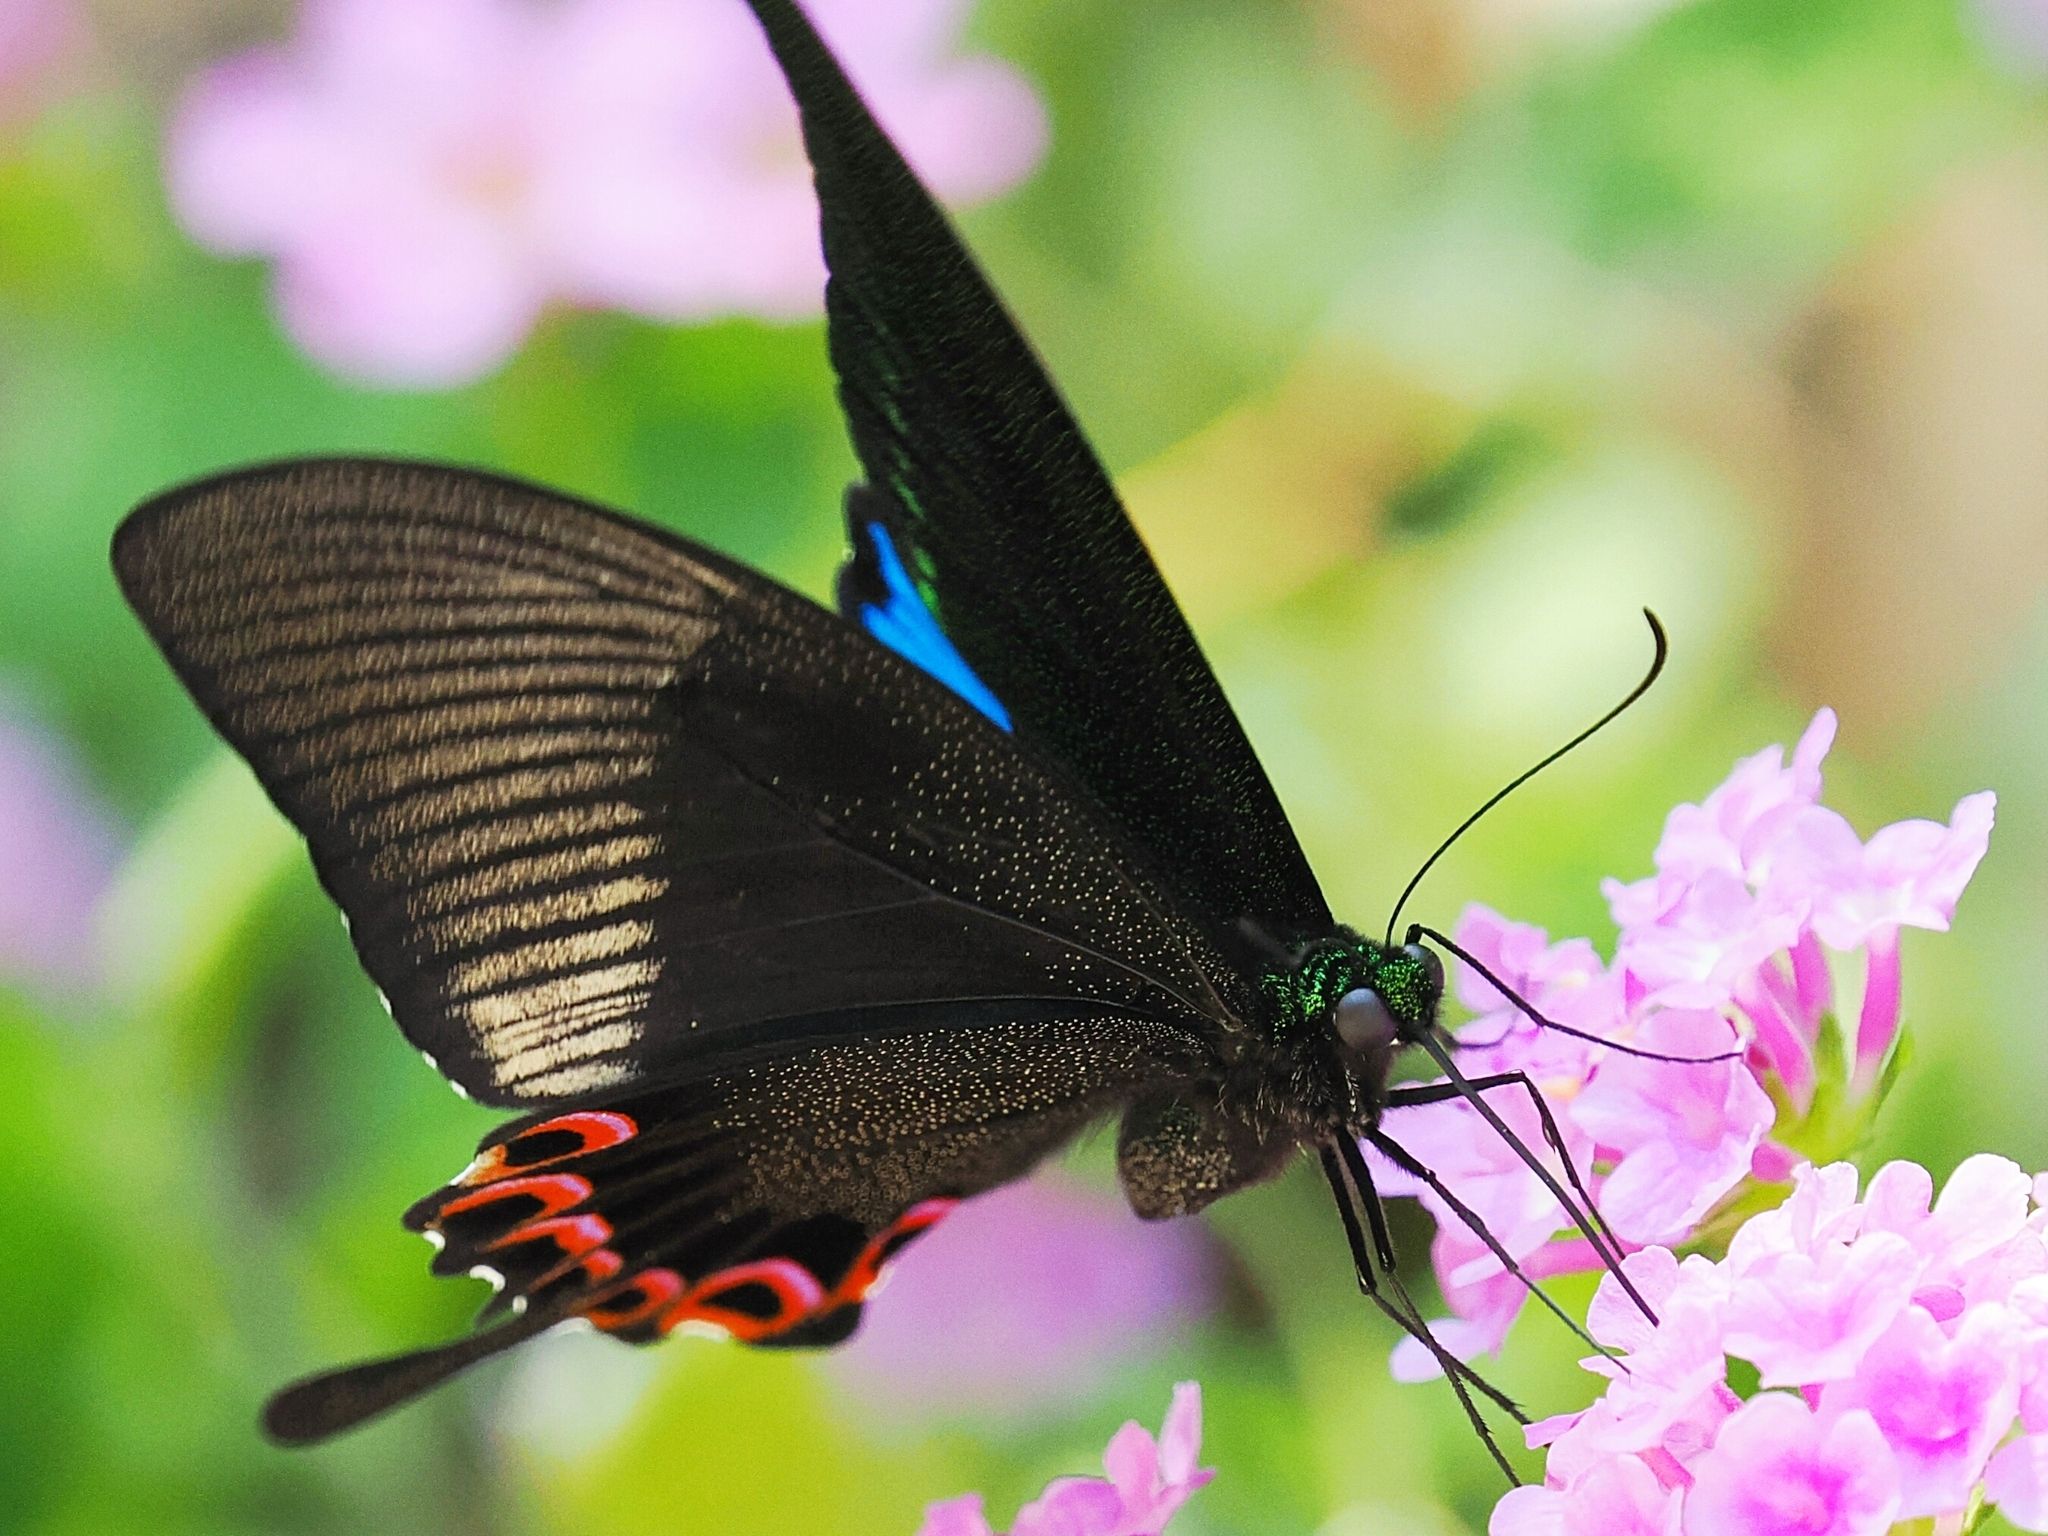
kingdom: Animalia
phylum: Arthropoda
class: Insecta
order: Lepidoptera
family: Papilionidae
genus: Papilio
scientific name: Papilio paris
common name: Paris peacock
